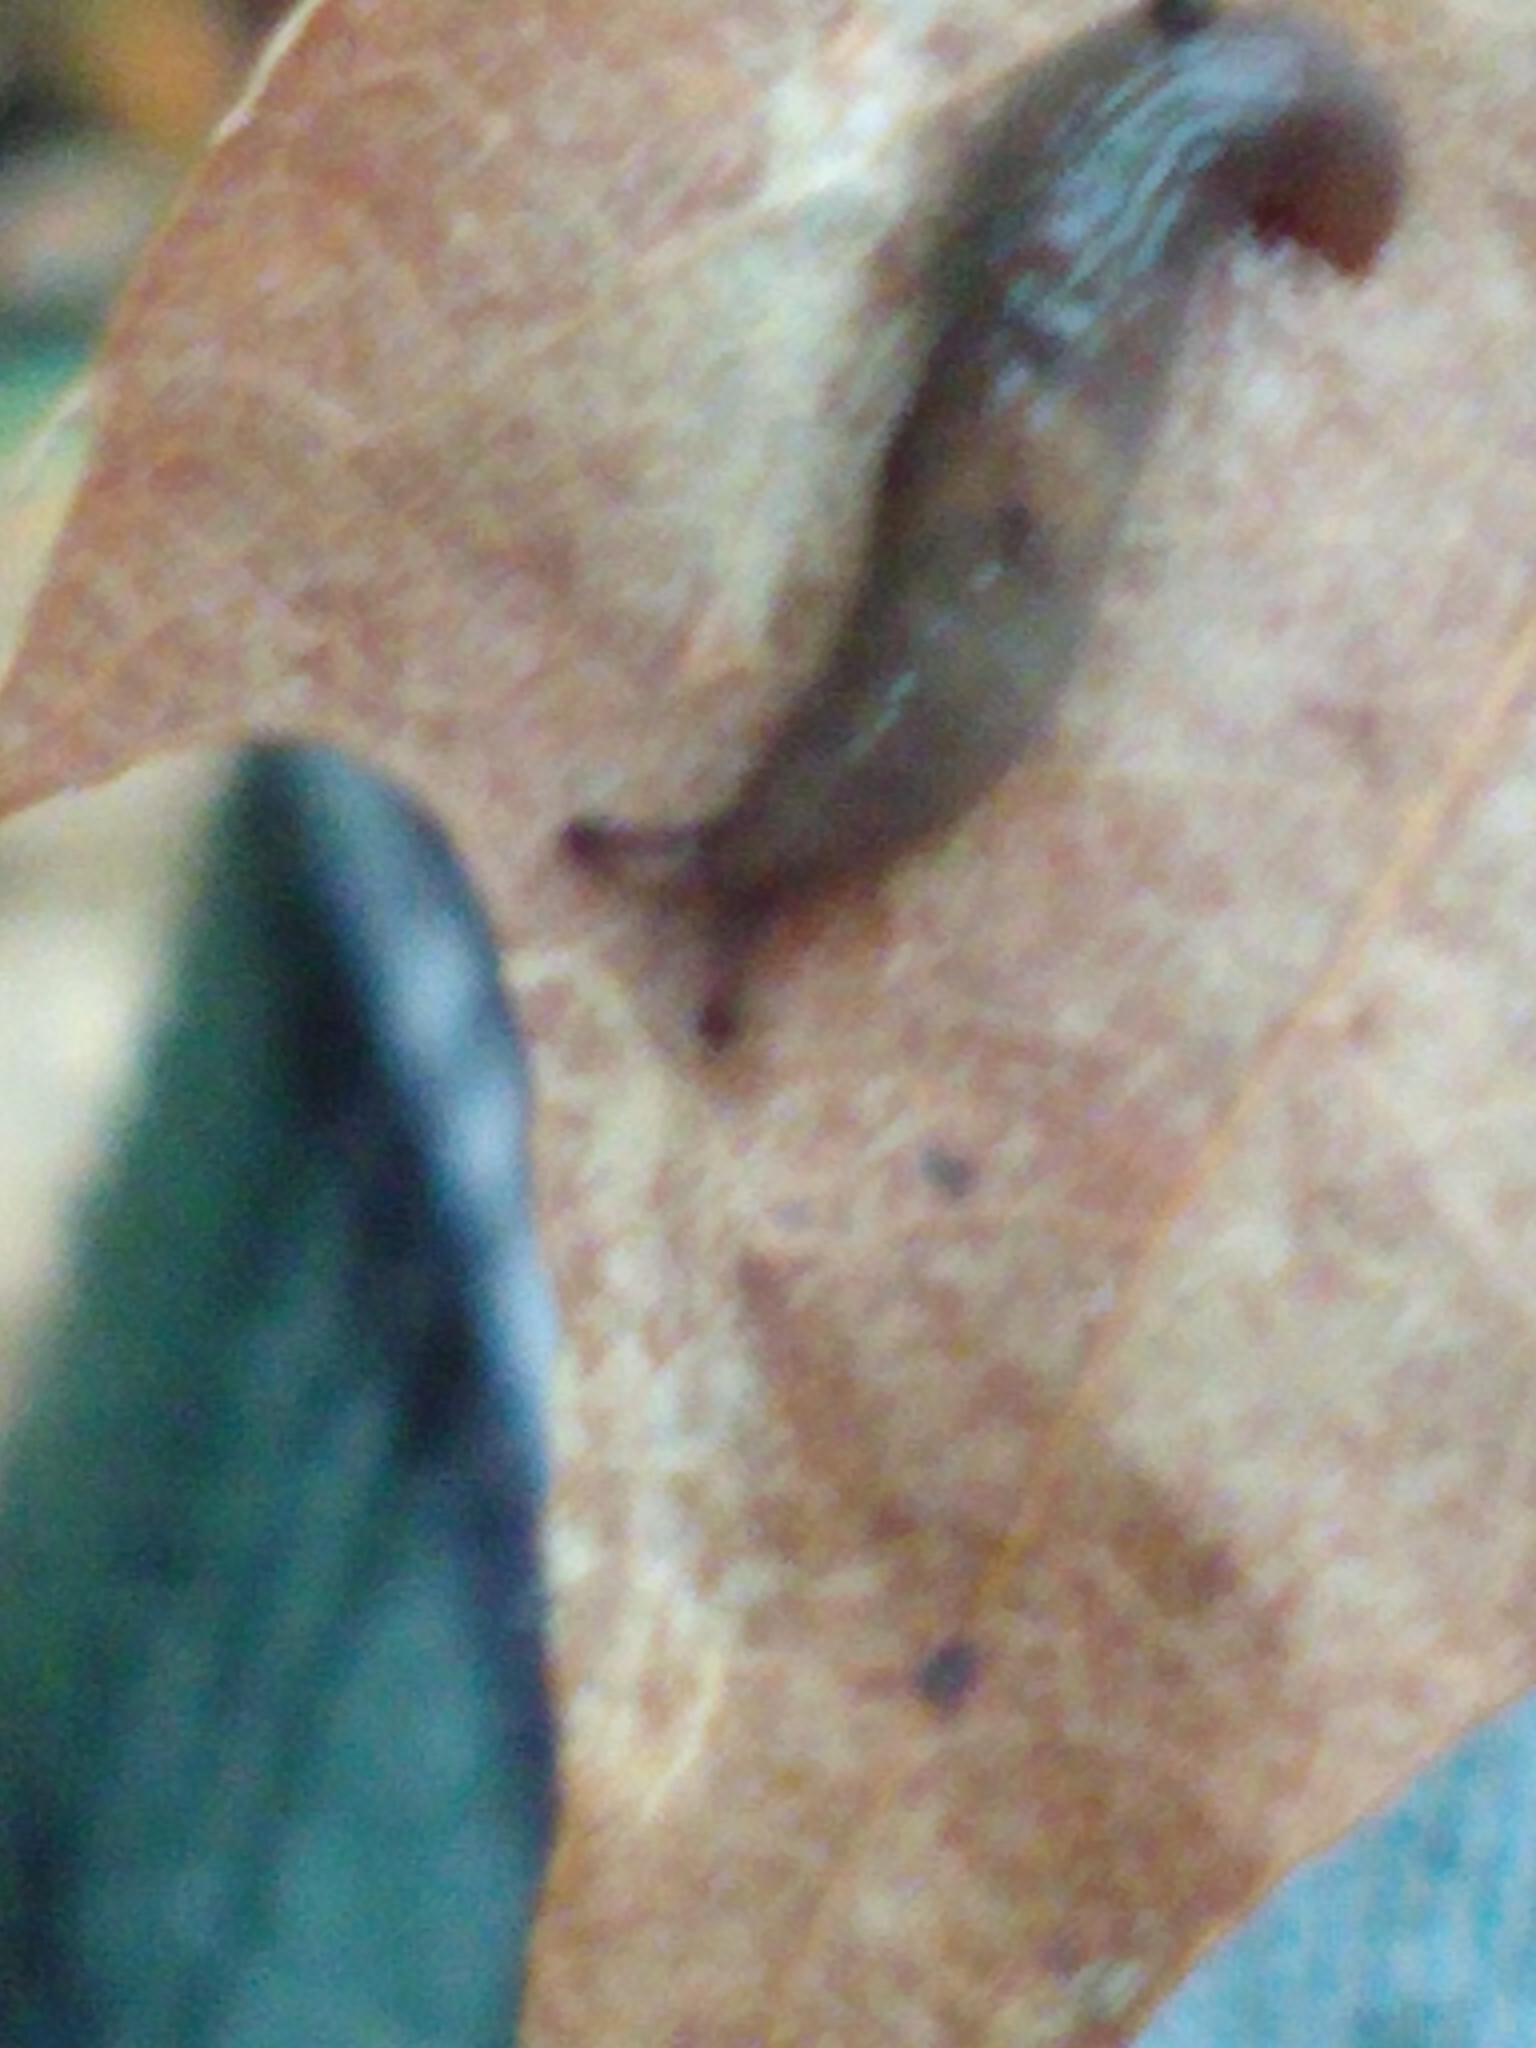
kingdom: Animalia
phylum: Mollusca
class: Gastropoda
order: Stylommatophora
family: Agriolimacidae
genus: Deroceras
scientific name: Deroceras laeve
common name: Marsh slug
